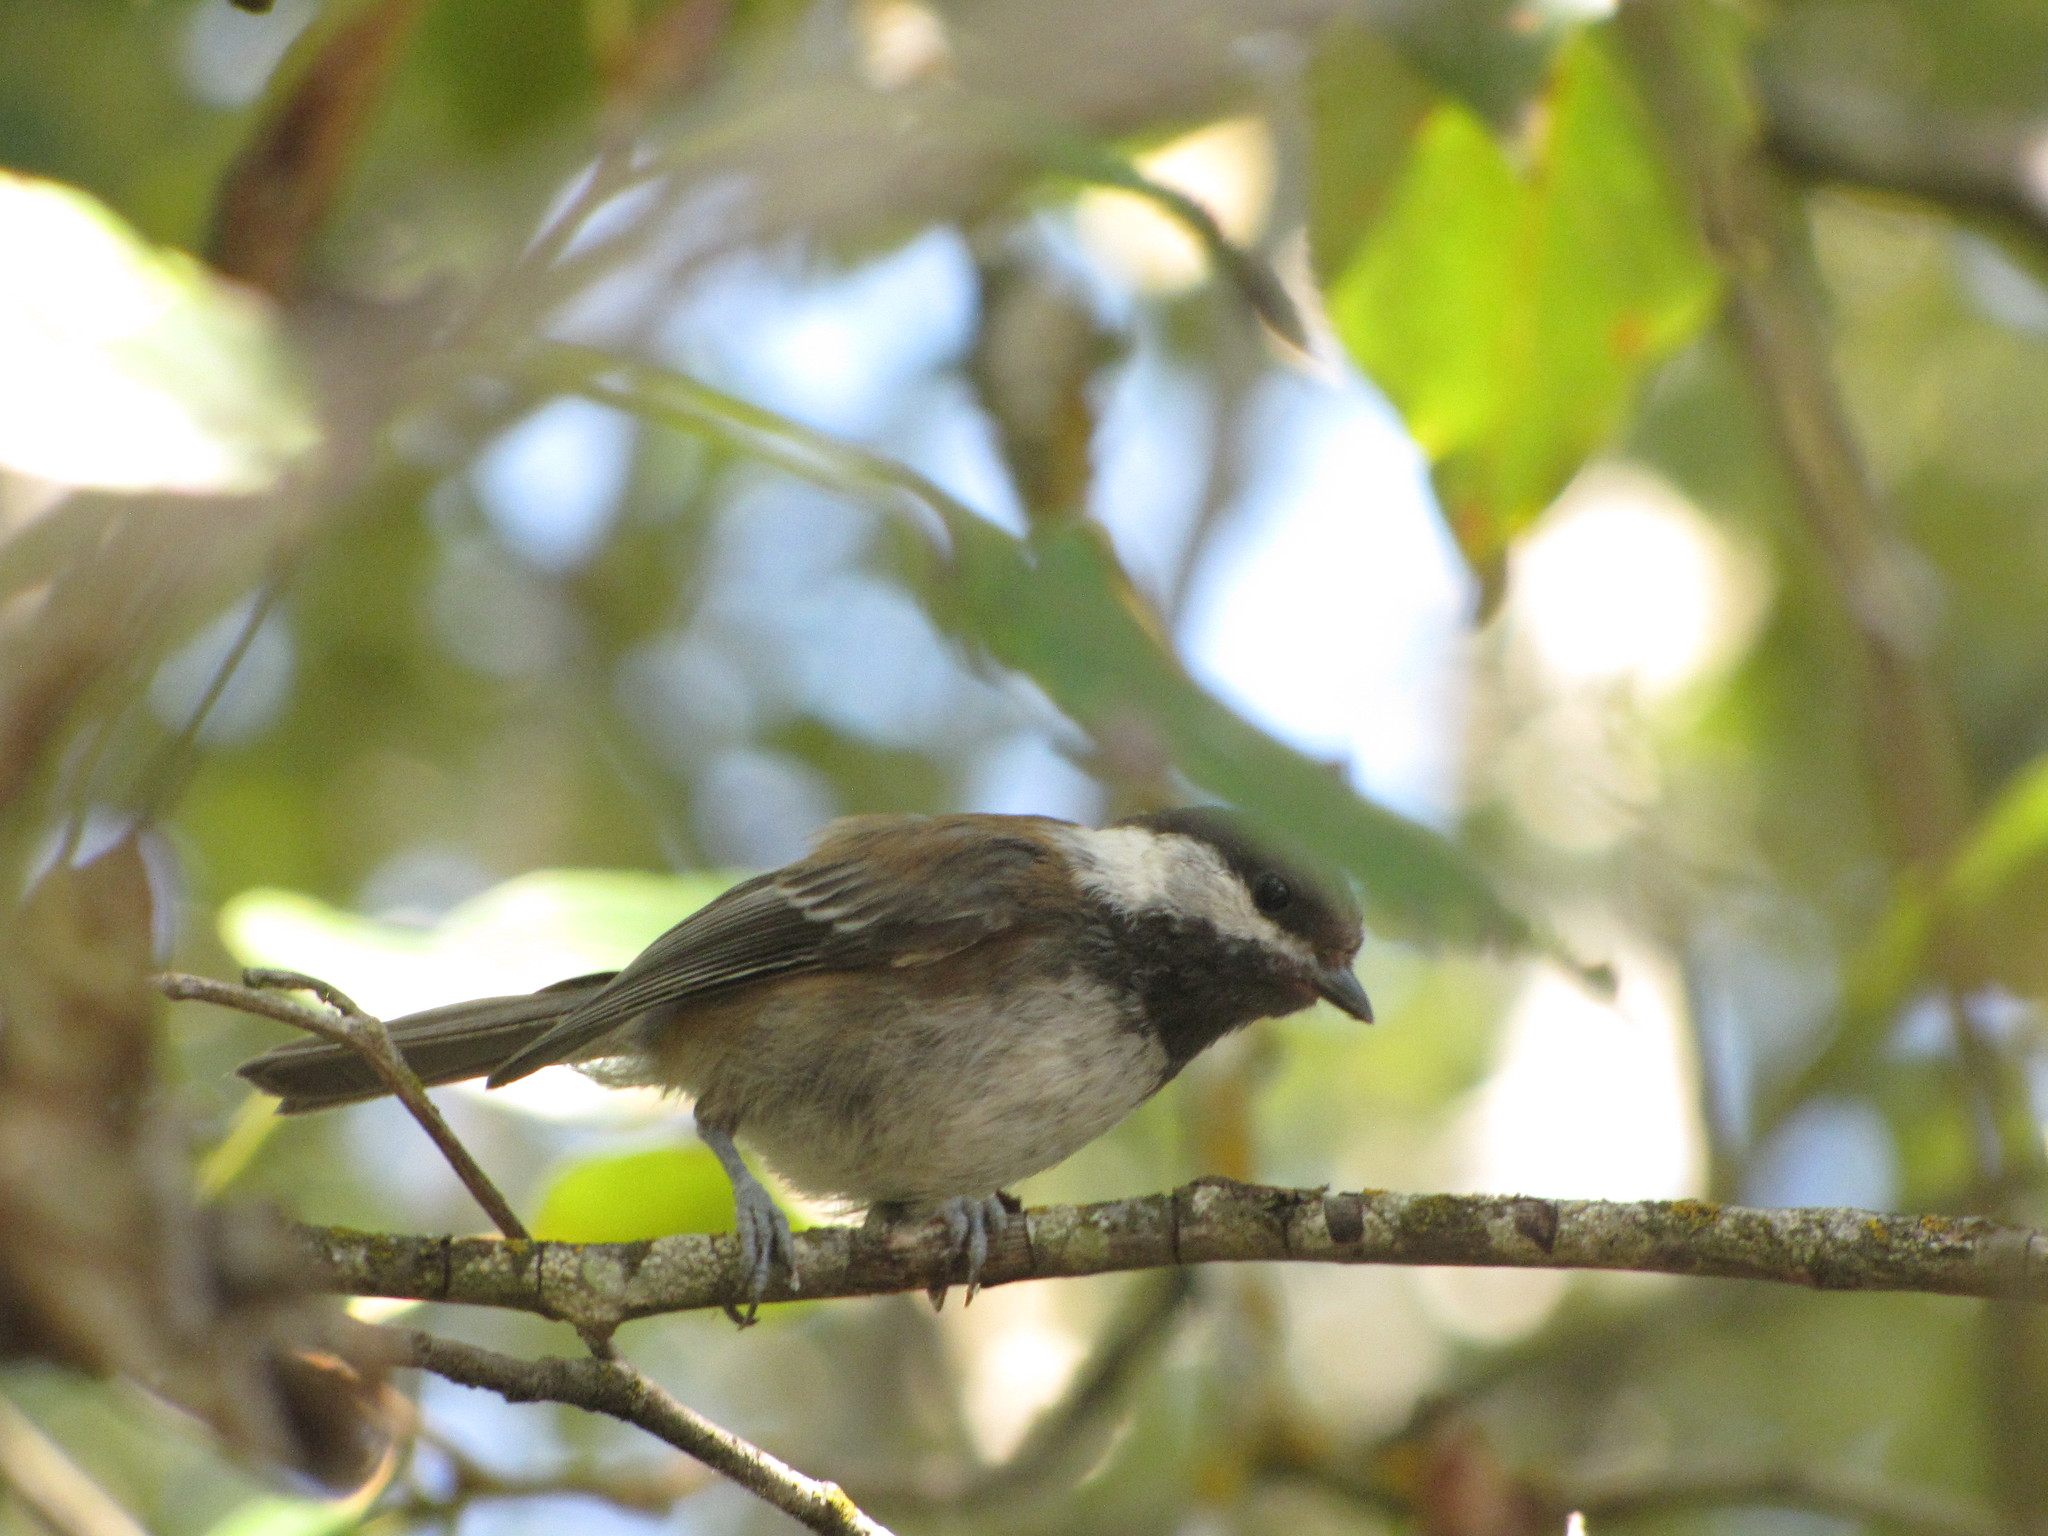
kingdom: Animalia
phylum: Chordata
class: Aves
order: Passeriformes
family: Paridae
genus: Poecile
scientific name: Poecile rufescens
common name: Chestnut-backed chickadee
